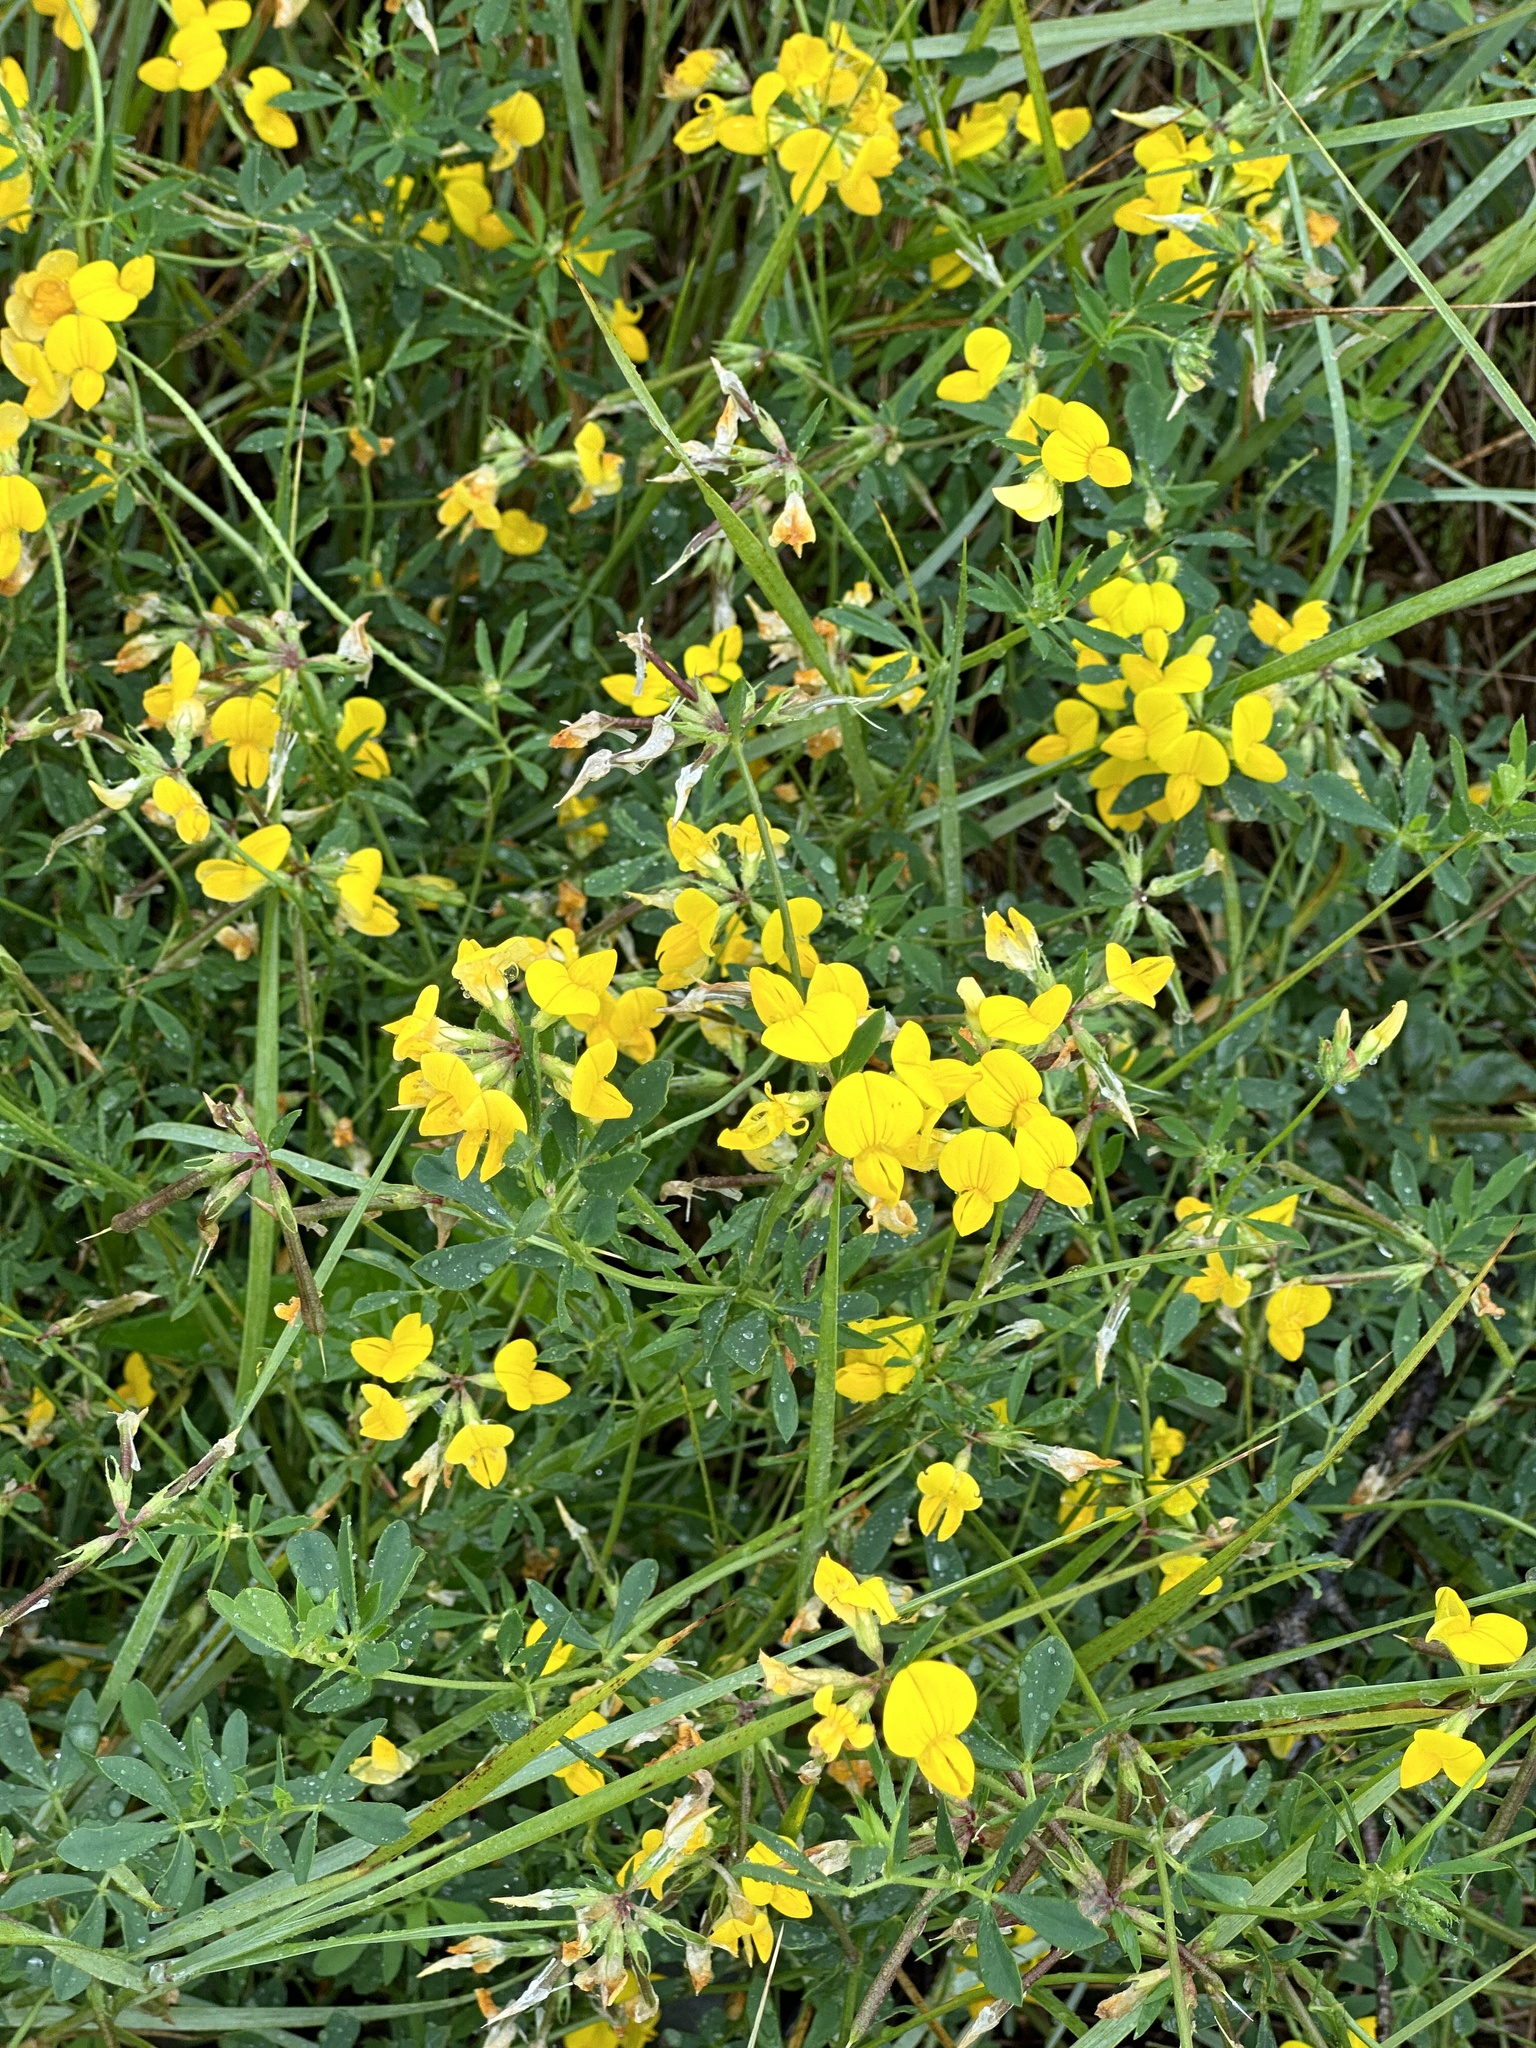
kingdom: Plantae
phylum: Tracheophyta
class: Magnoliopsida
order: Fabales
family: Fabaceae
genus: Lotus
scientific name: Lotus corniculatus
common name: Common bird's-foot-trefoil
